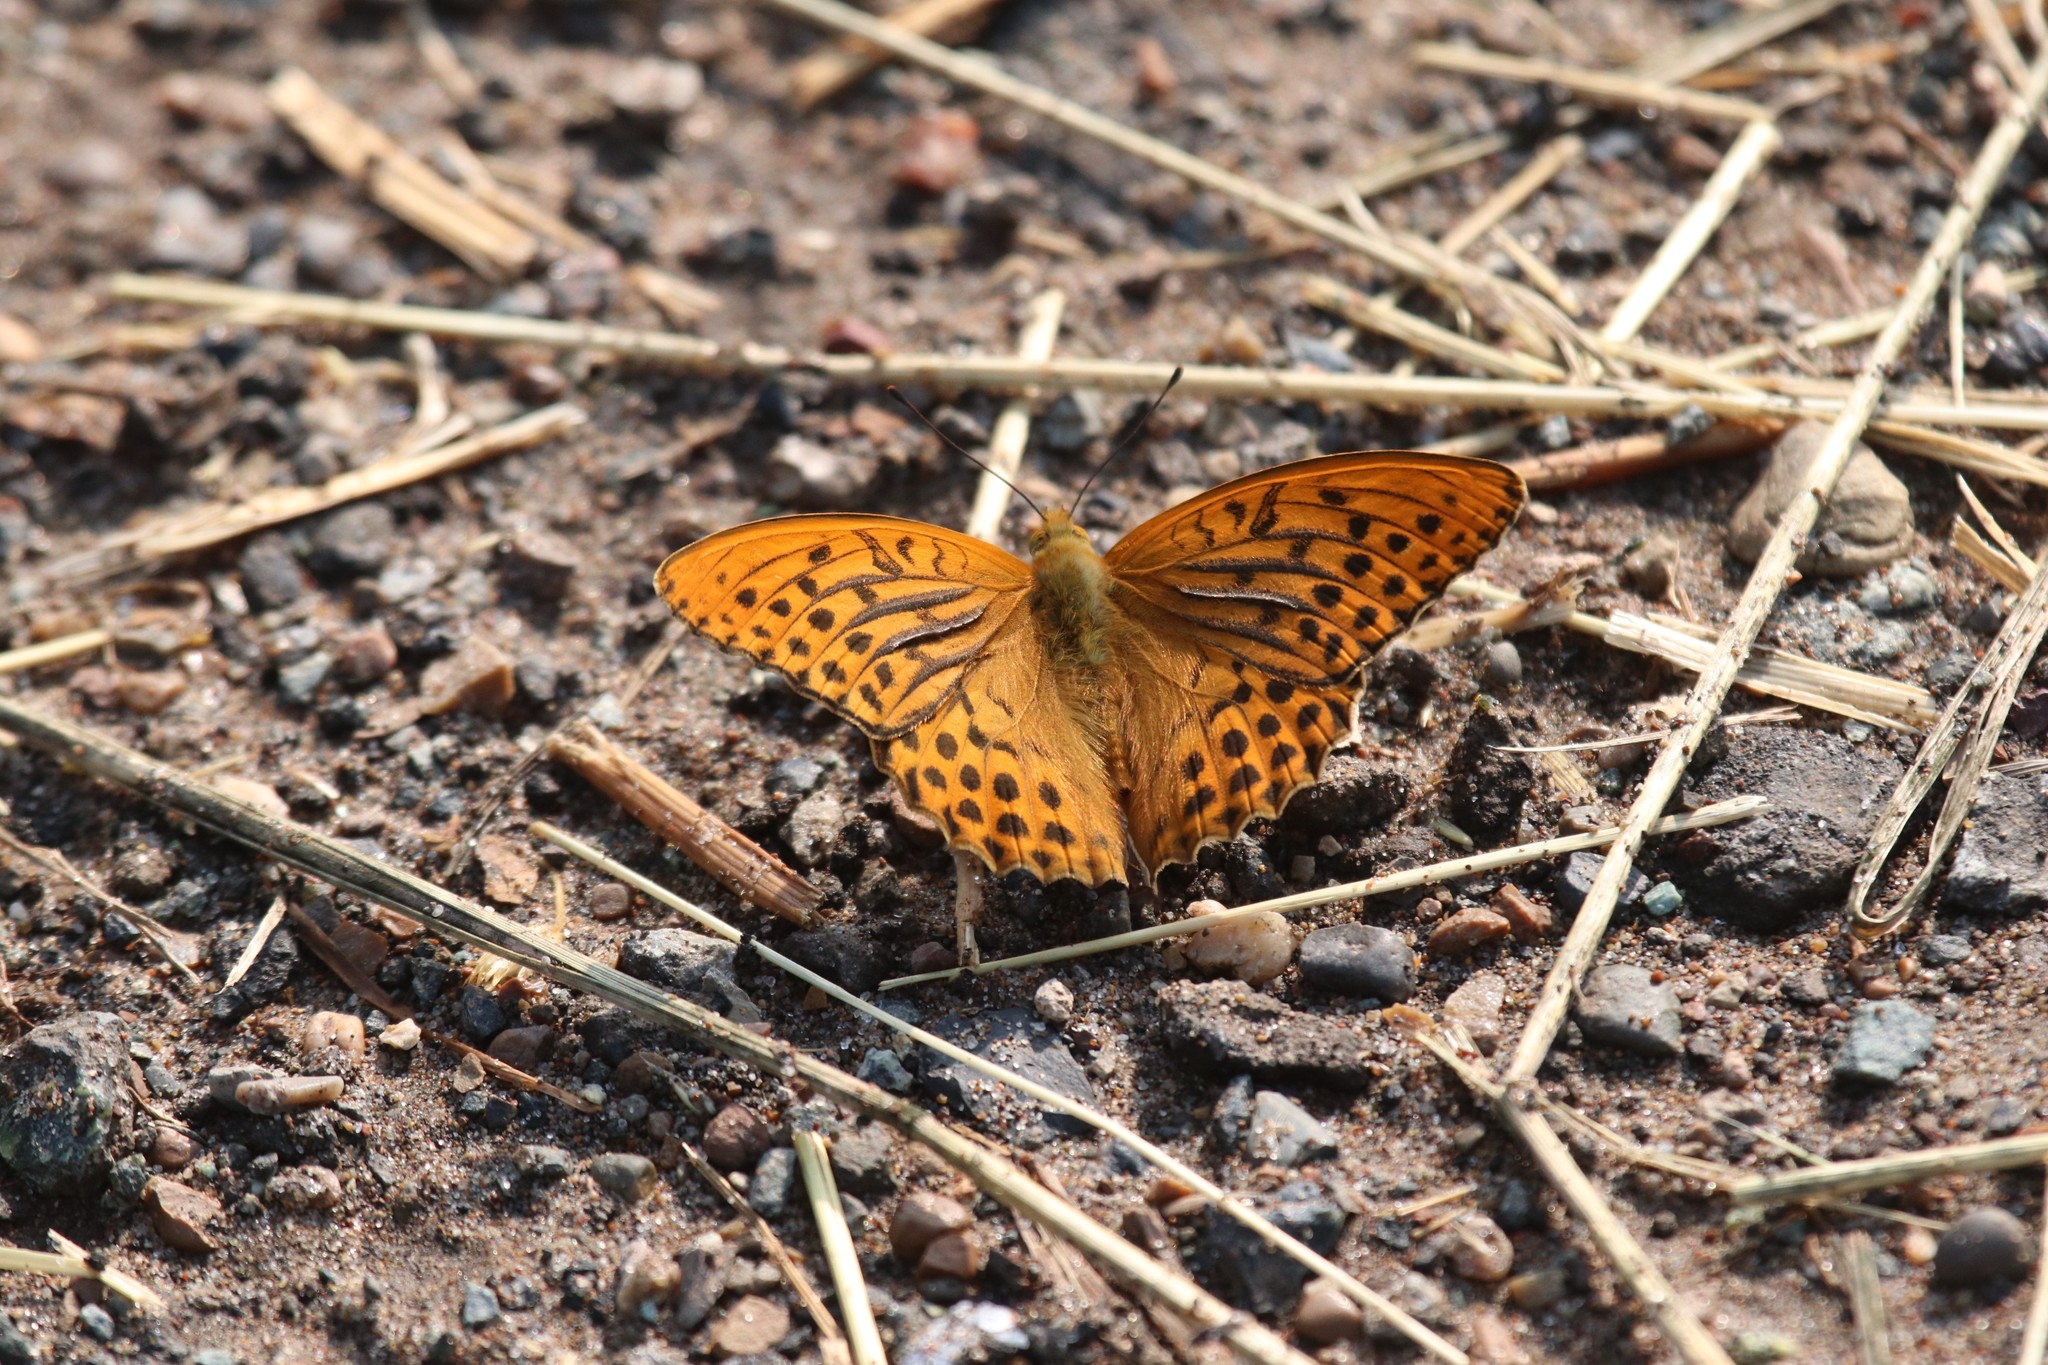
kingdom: Animalia
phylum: Arthropoda
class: Insecta
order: Lepidoptera
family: Nymphalidae
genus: Argynnis
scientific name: Argynnis paphia
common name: Silver-washed fritillary
